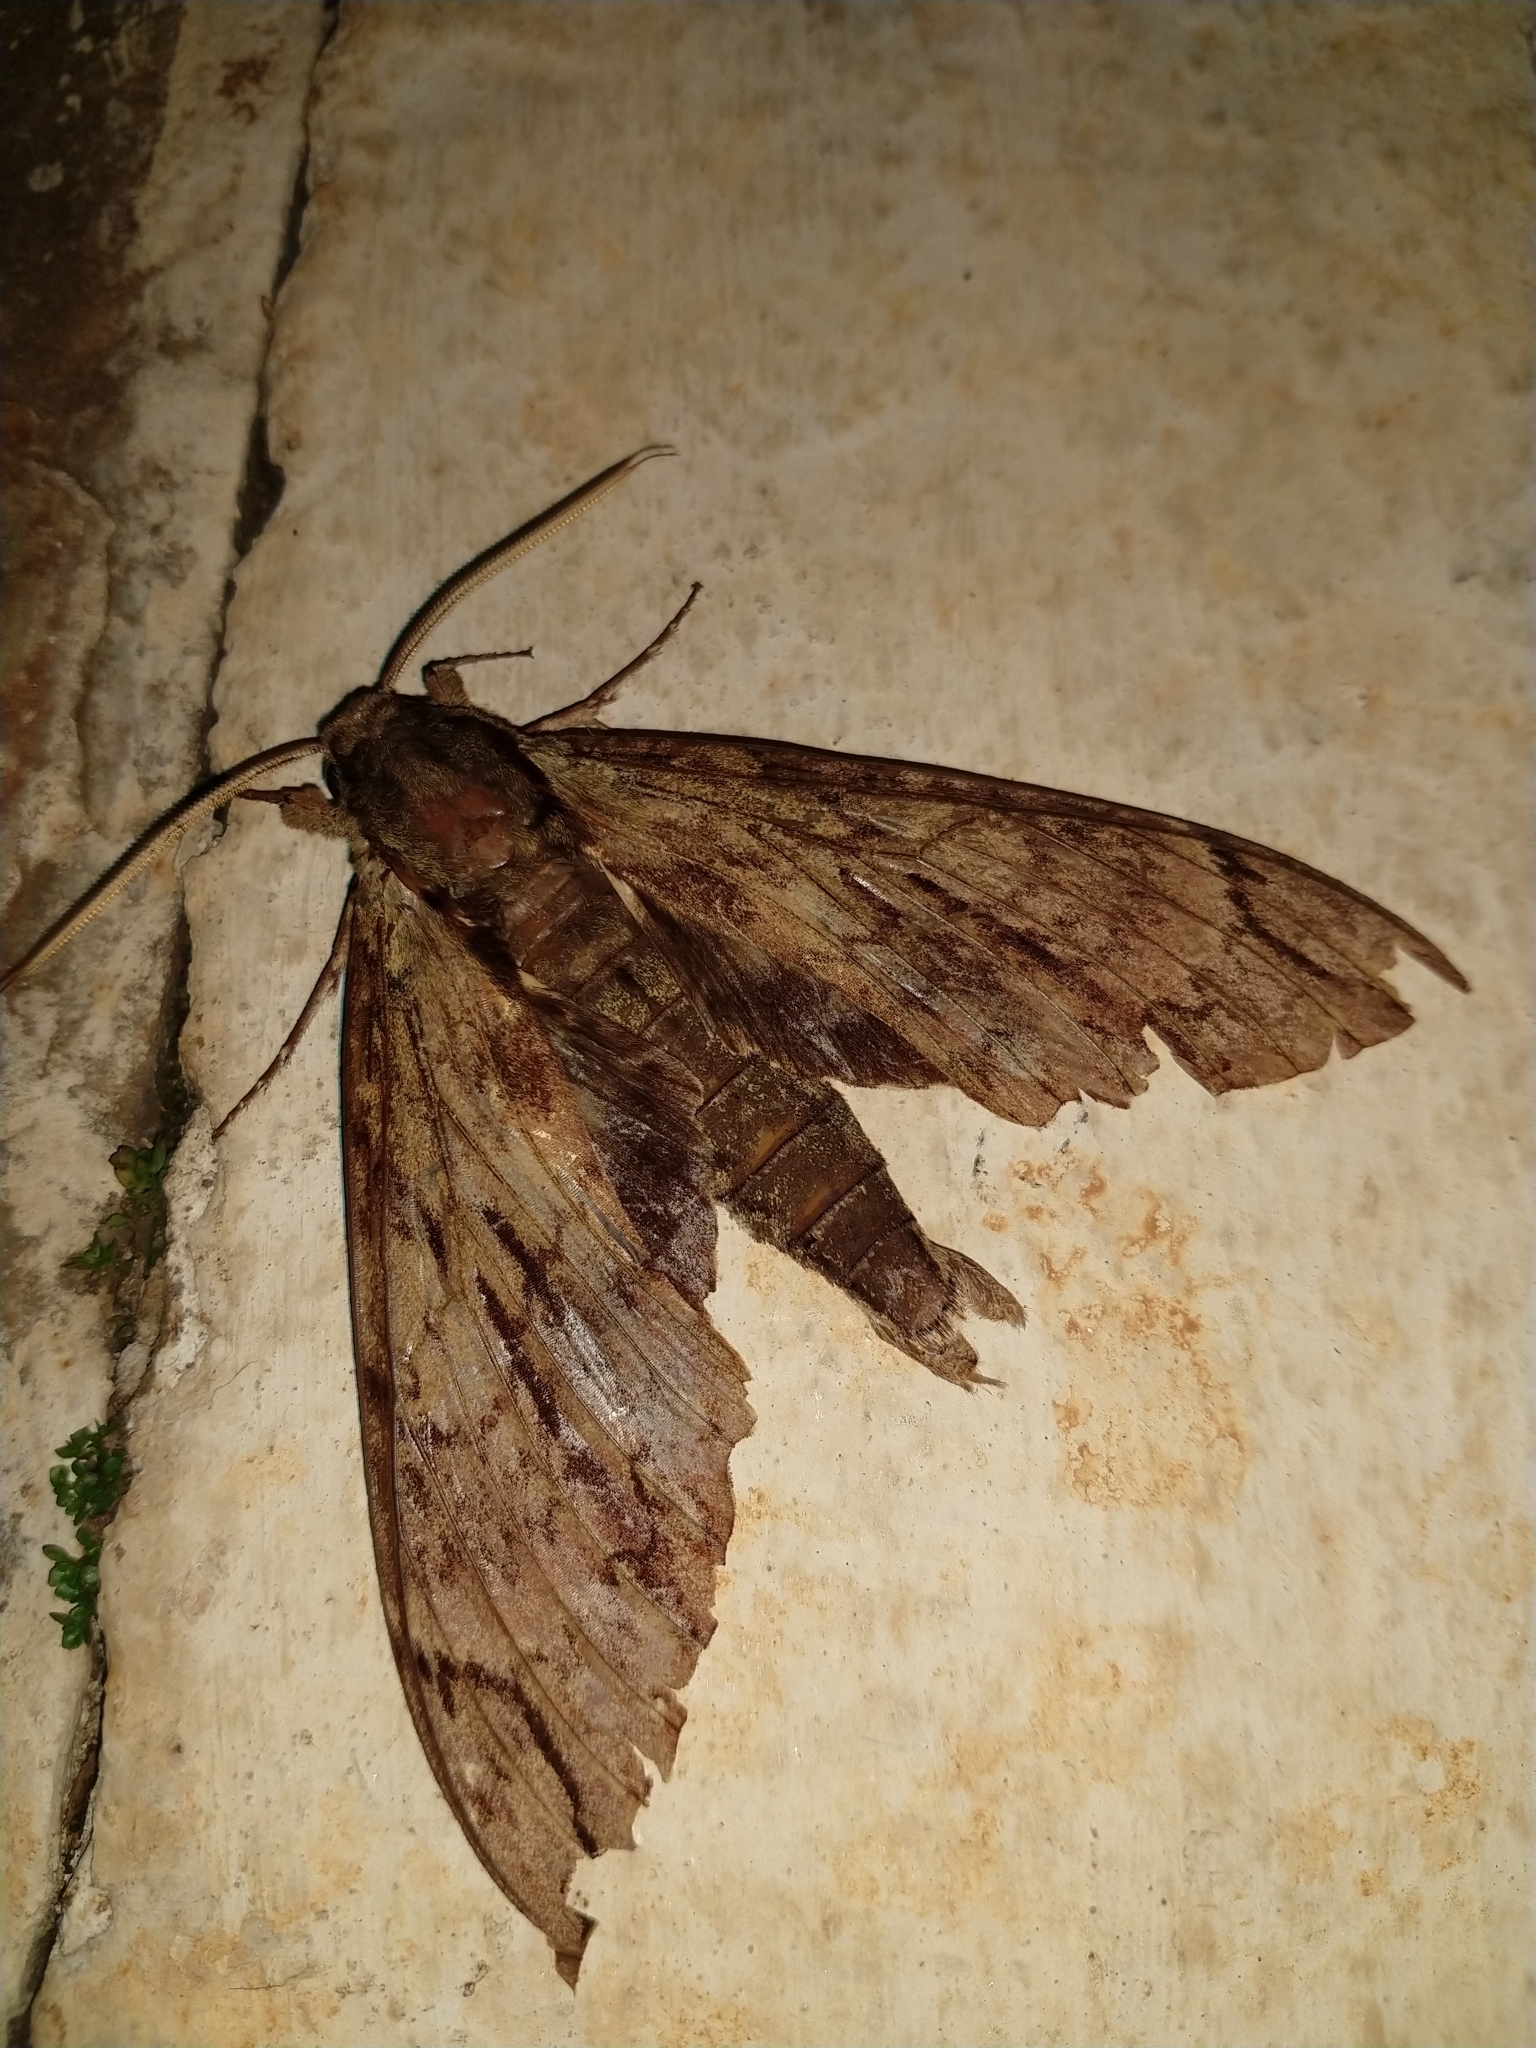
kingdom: Animalia
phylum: Arthropoda
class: Insecta
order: Lepidoptera
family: Sphingidae
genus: Cocytius
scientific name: Cocytius lucifer
